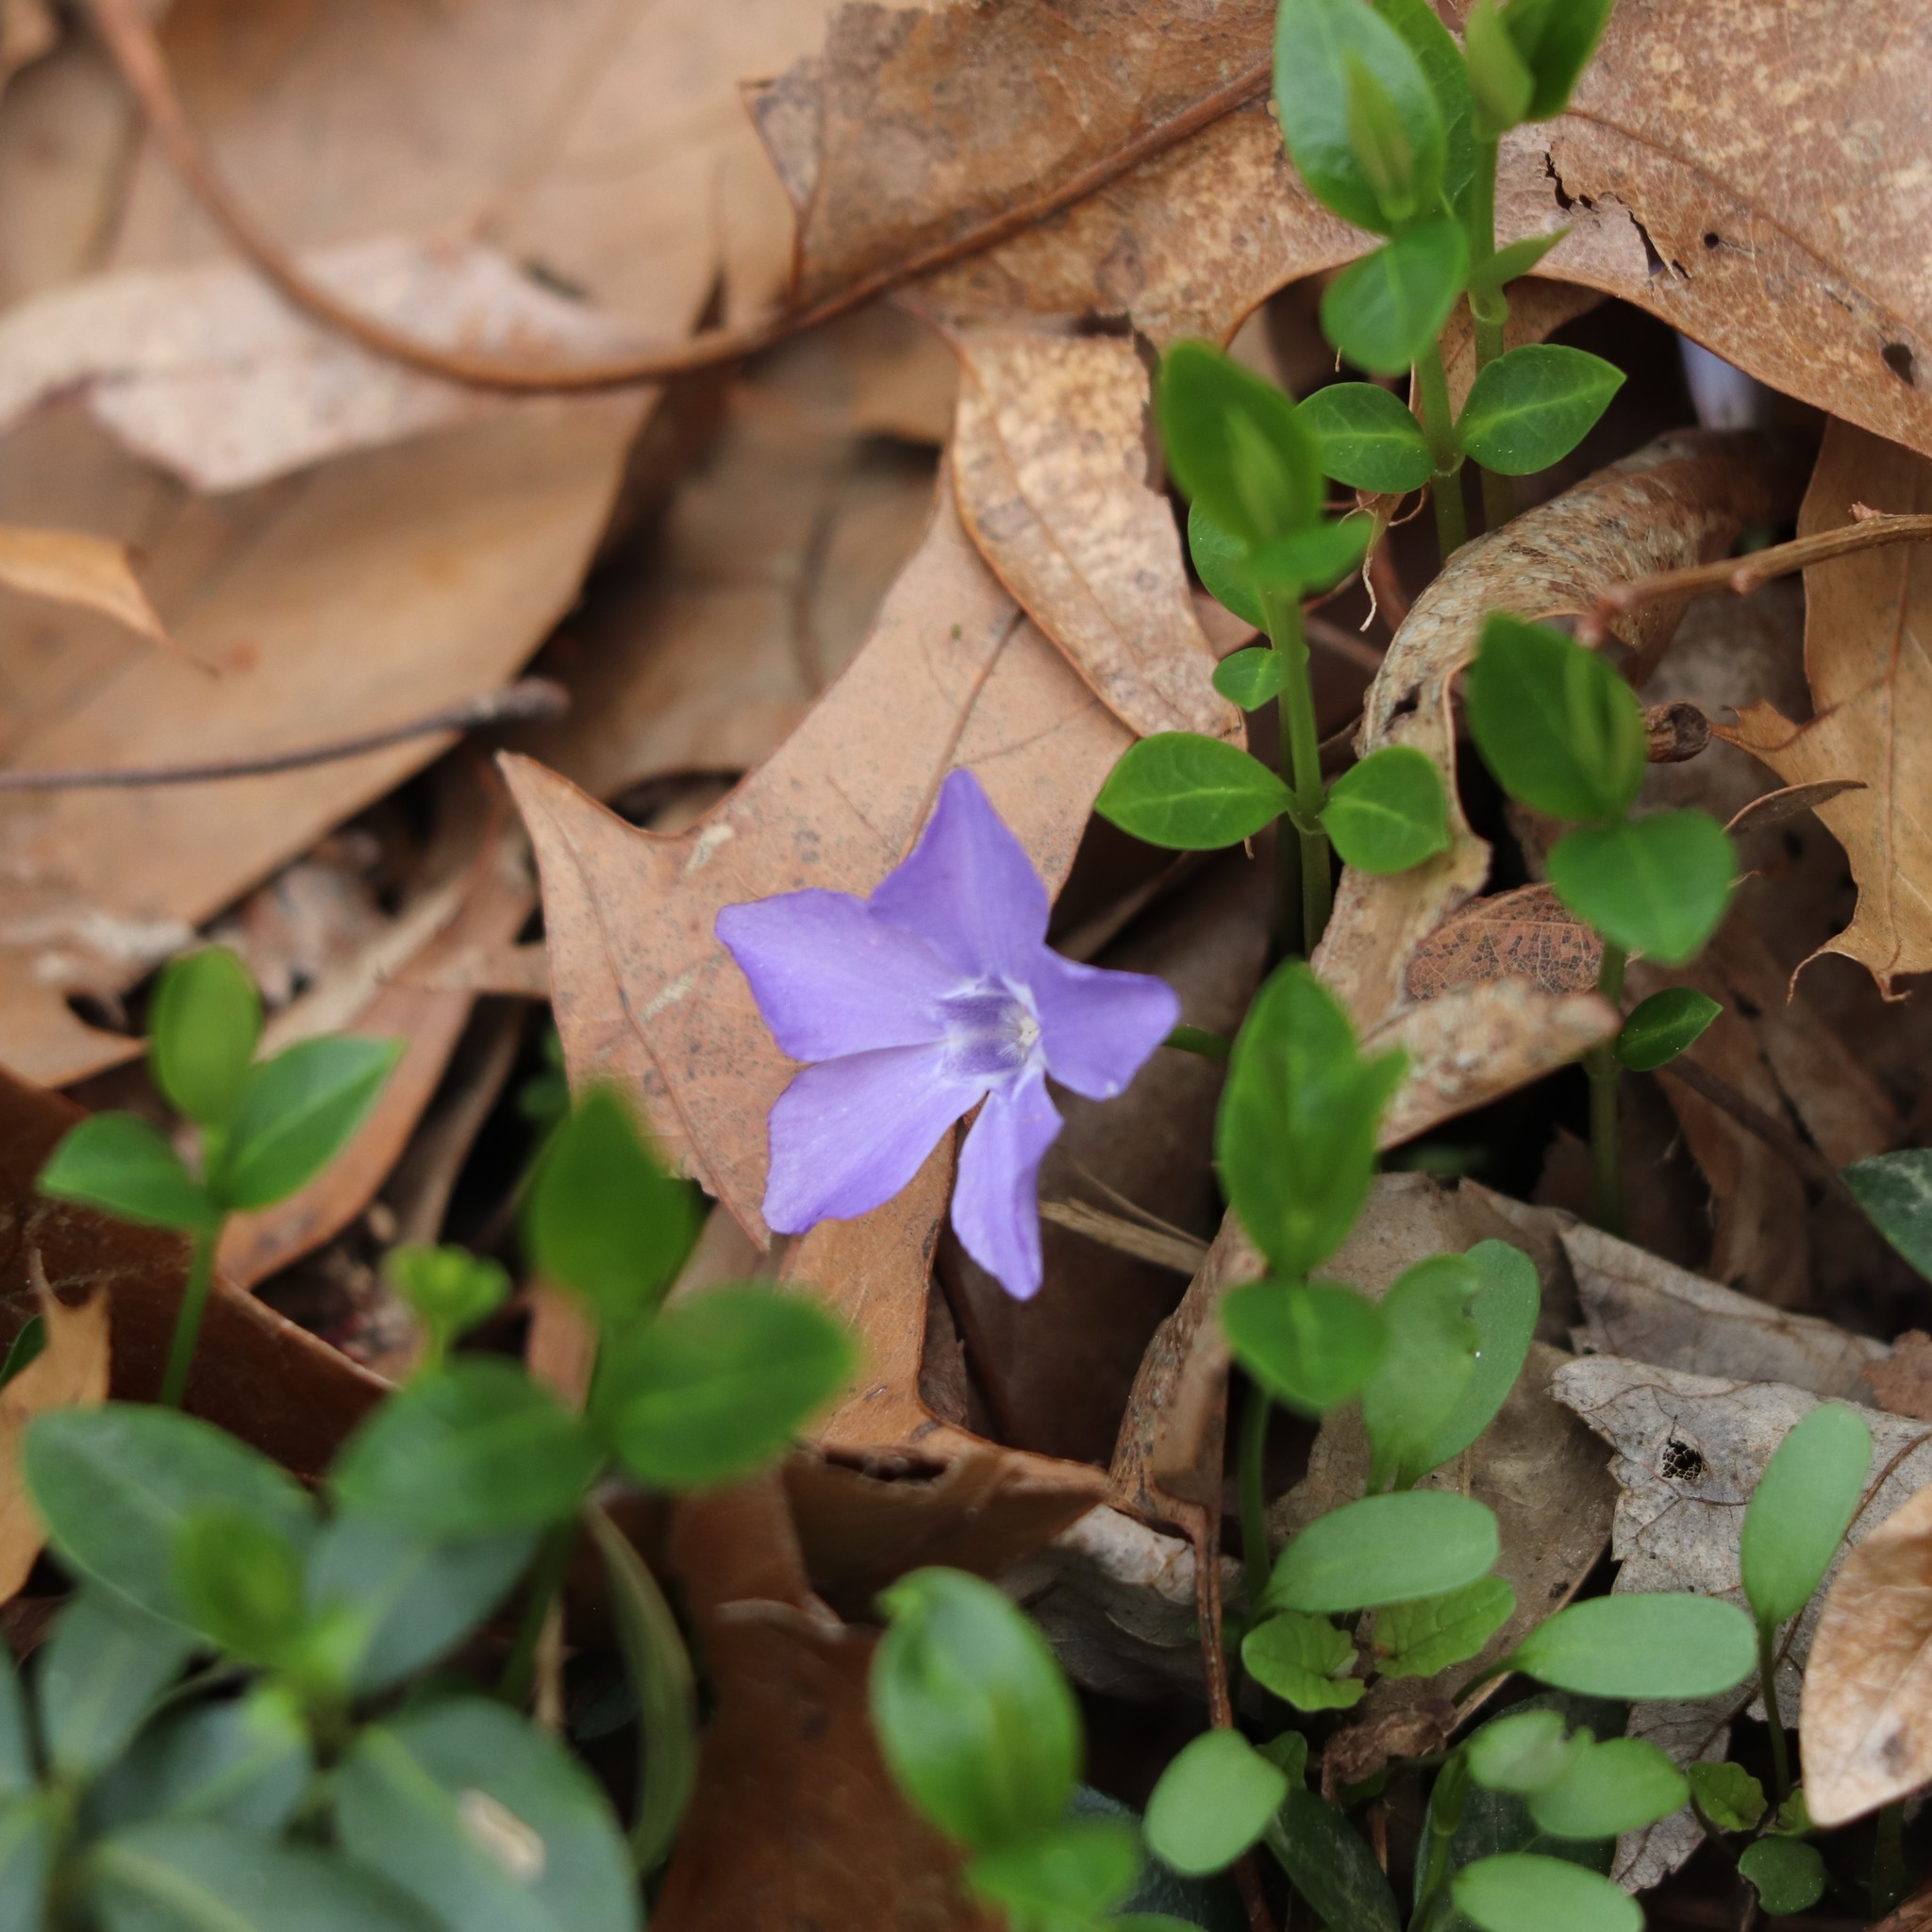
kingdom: Plantae
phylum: Tracheophyta
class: Magnoliopsida
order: Gentianales
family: Apocynaceae
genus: Vinca
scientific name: Vinca minor
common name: Lesser periwinkle
